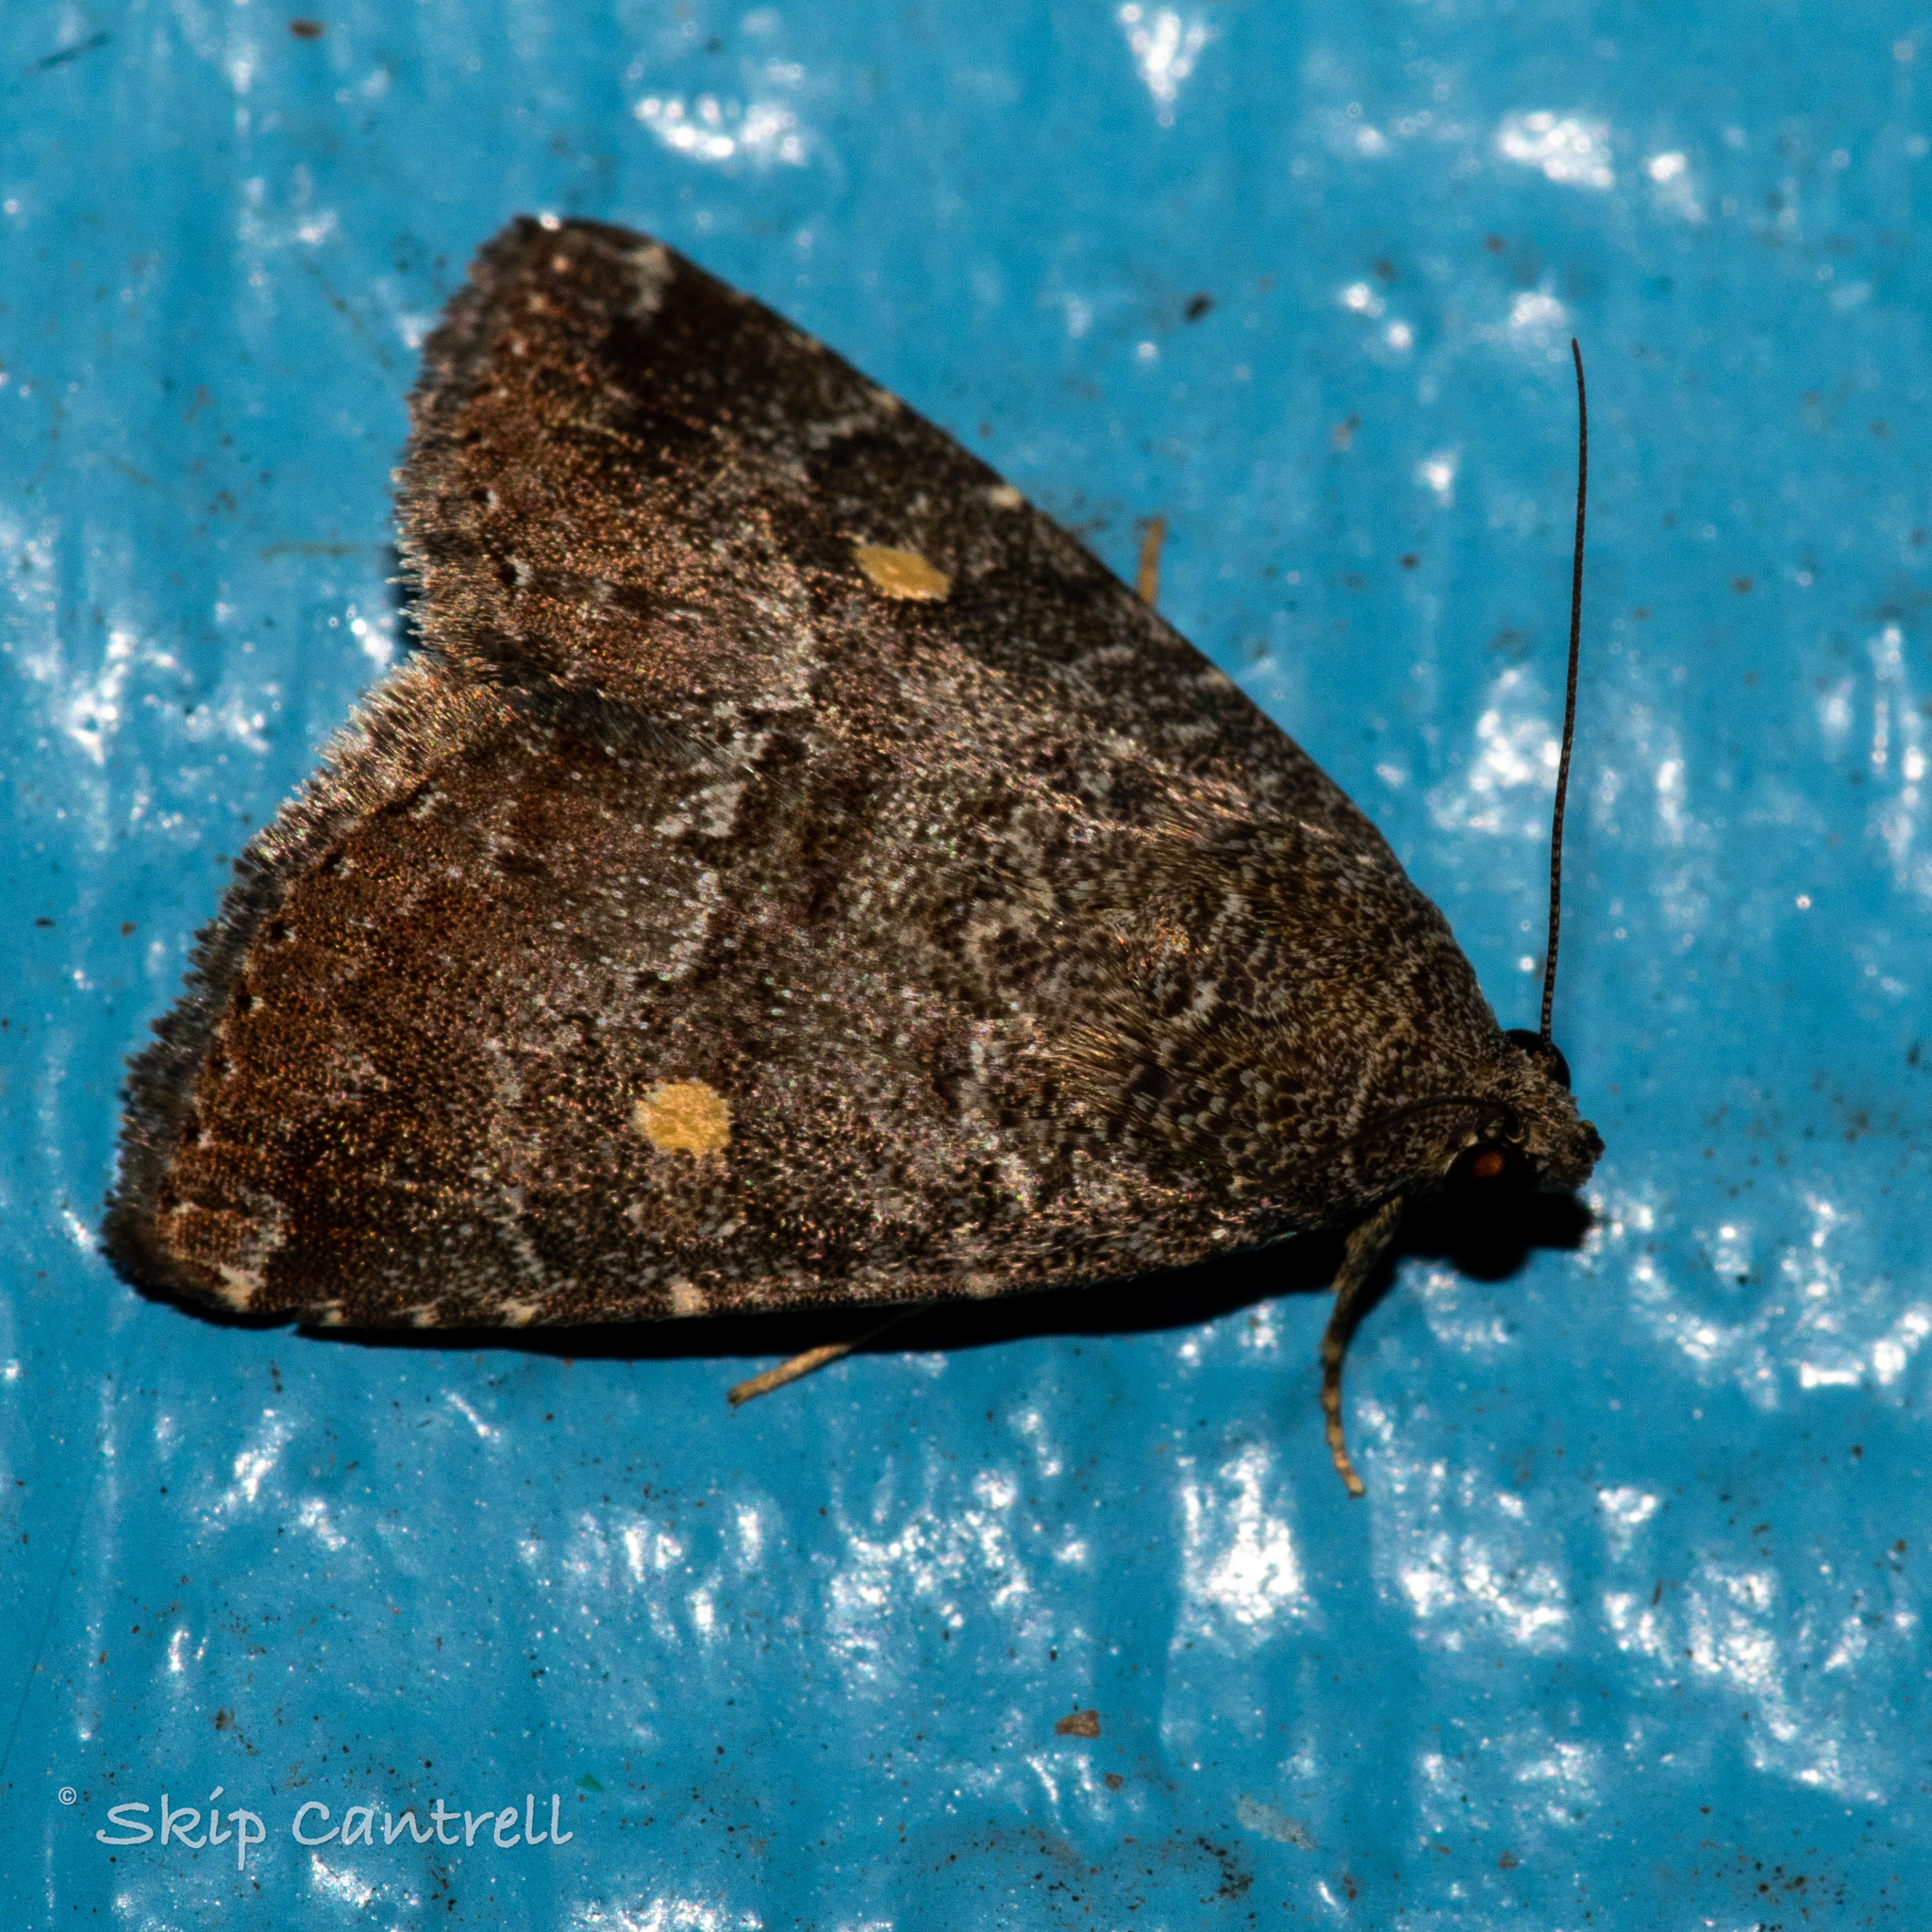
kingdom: Animalia
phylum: Arthropoda
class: Insecta
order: Lepidoptera
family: Noctuidae
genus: Amyna
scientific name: Amyna stricta
